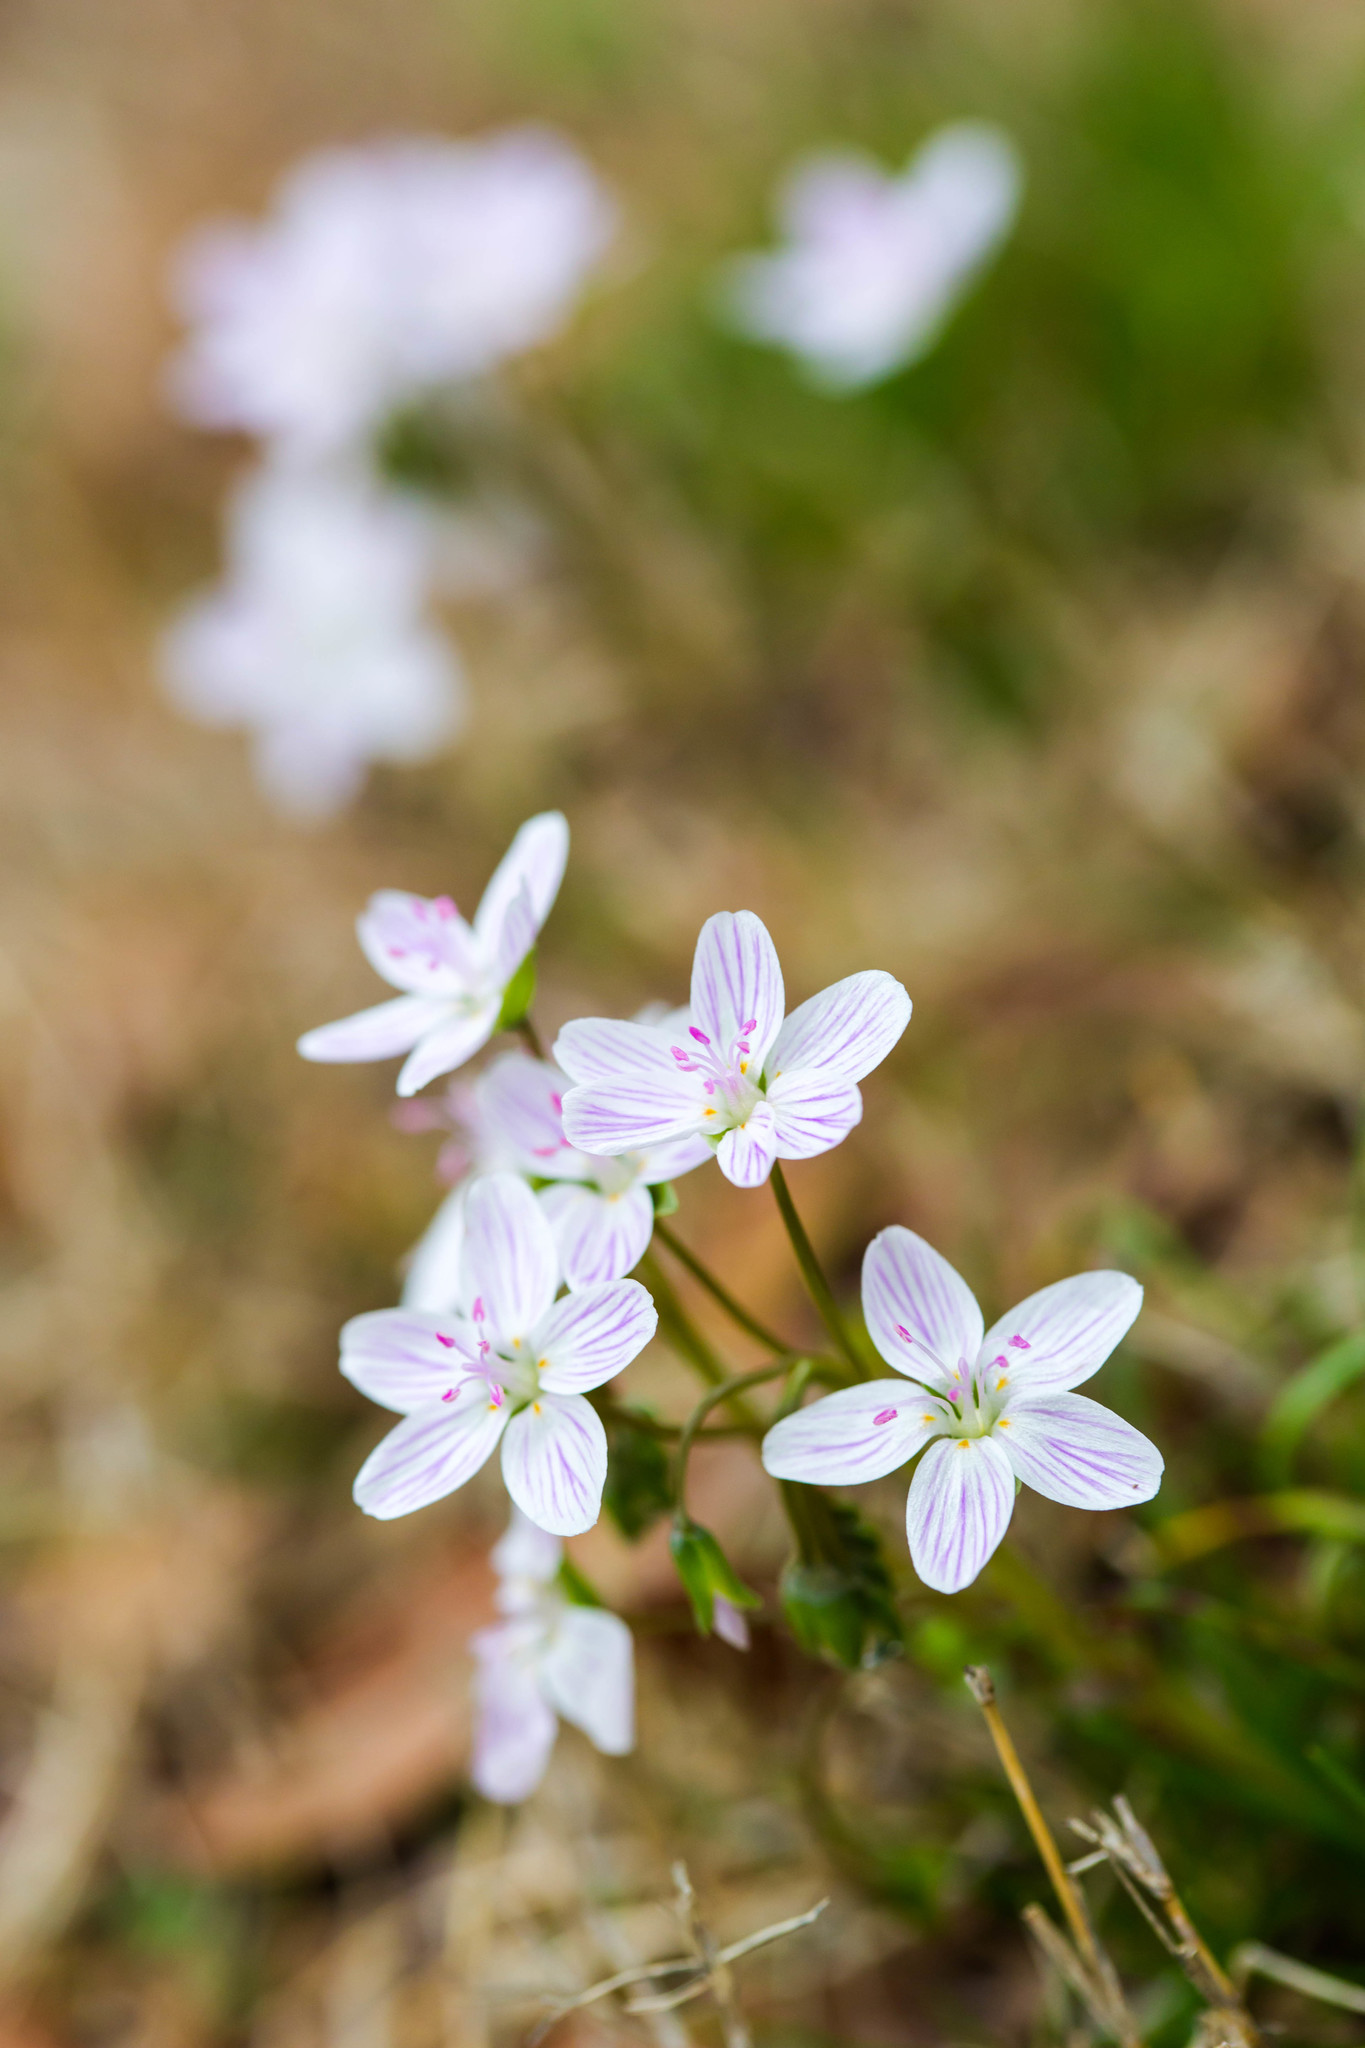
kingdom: Plantae
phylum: Tracheophyta
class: Magnoliopsida
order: Caryophyllales
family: Montiaceae
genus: Claytonia
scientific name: Claytonia virginica
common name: Virginia springbeauty
